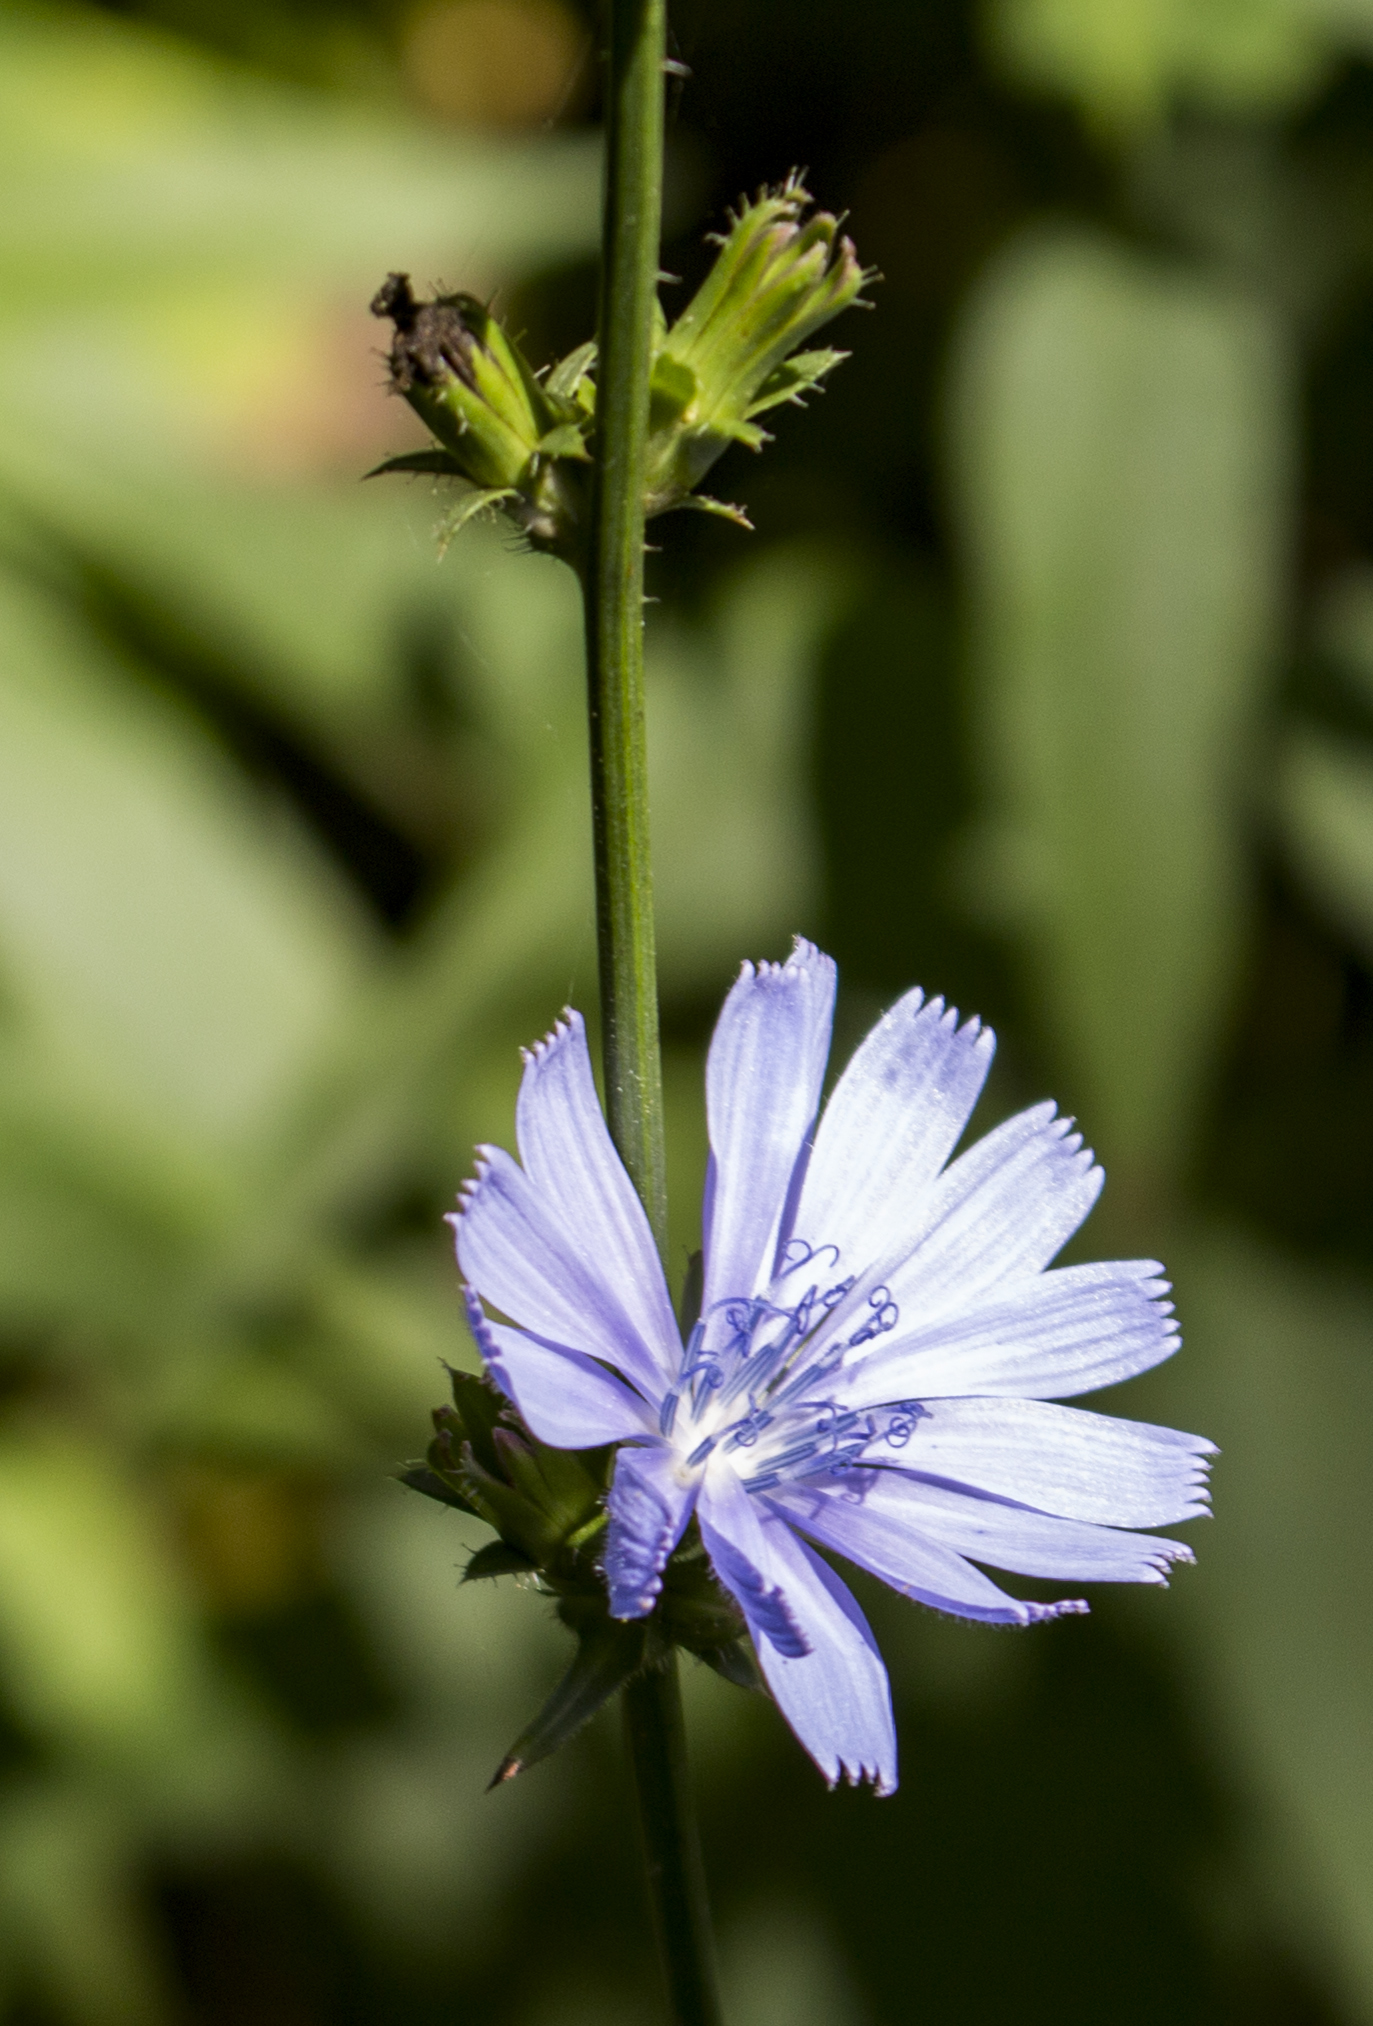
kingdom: Plantae
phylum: Tracheophyta
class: Magnoliopsida
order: Asterales
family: Asteraceae
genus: Cichorium
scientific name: Cichorium intybus
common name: Chicory
